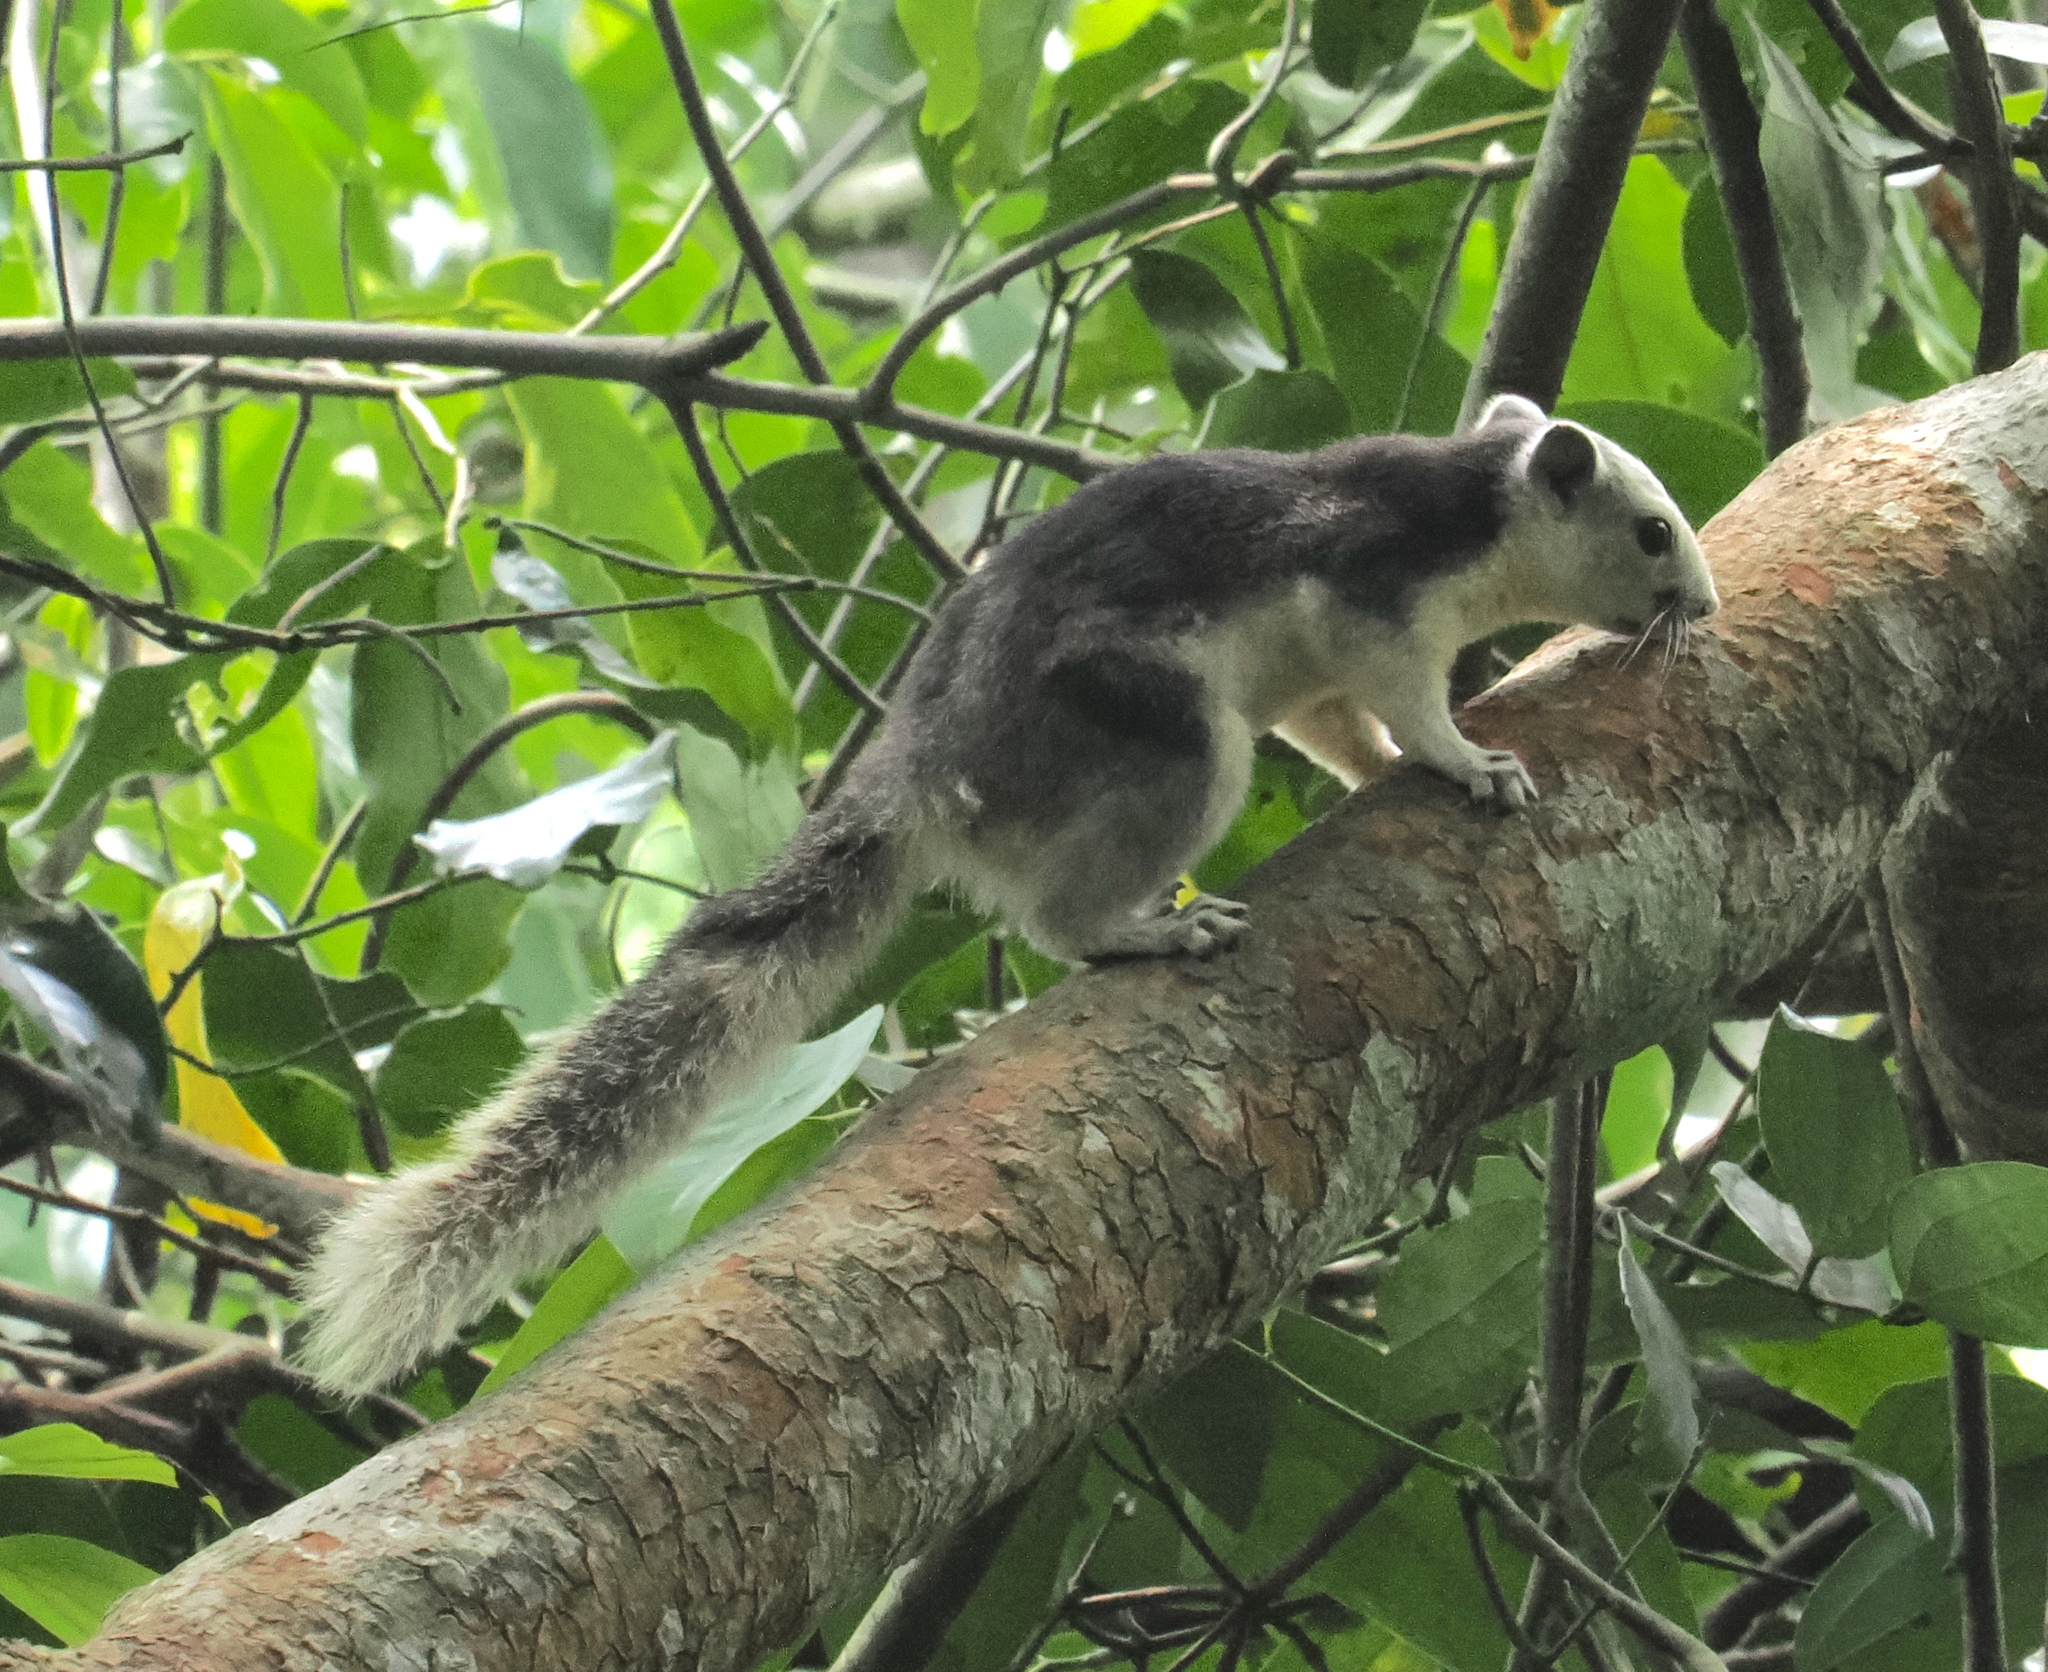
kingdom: Animalia
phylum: Chordata
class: Mammalia
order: Rodentia
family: Sciuridae
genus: Callosciurus
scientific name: Callosciurus finlaysonii
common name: Finlayson's squirrel
